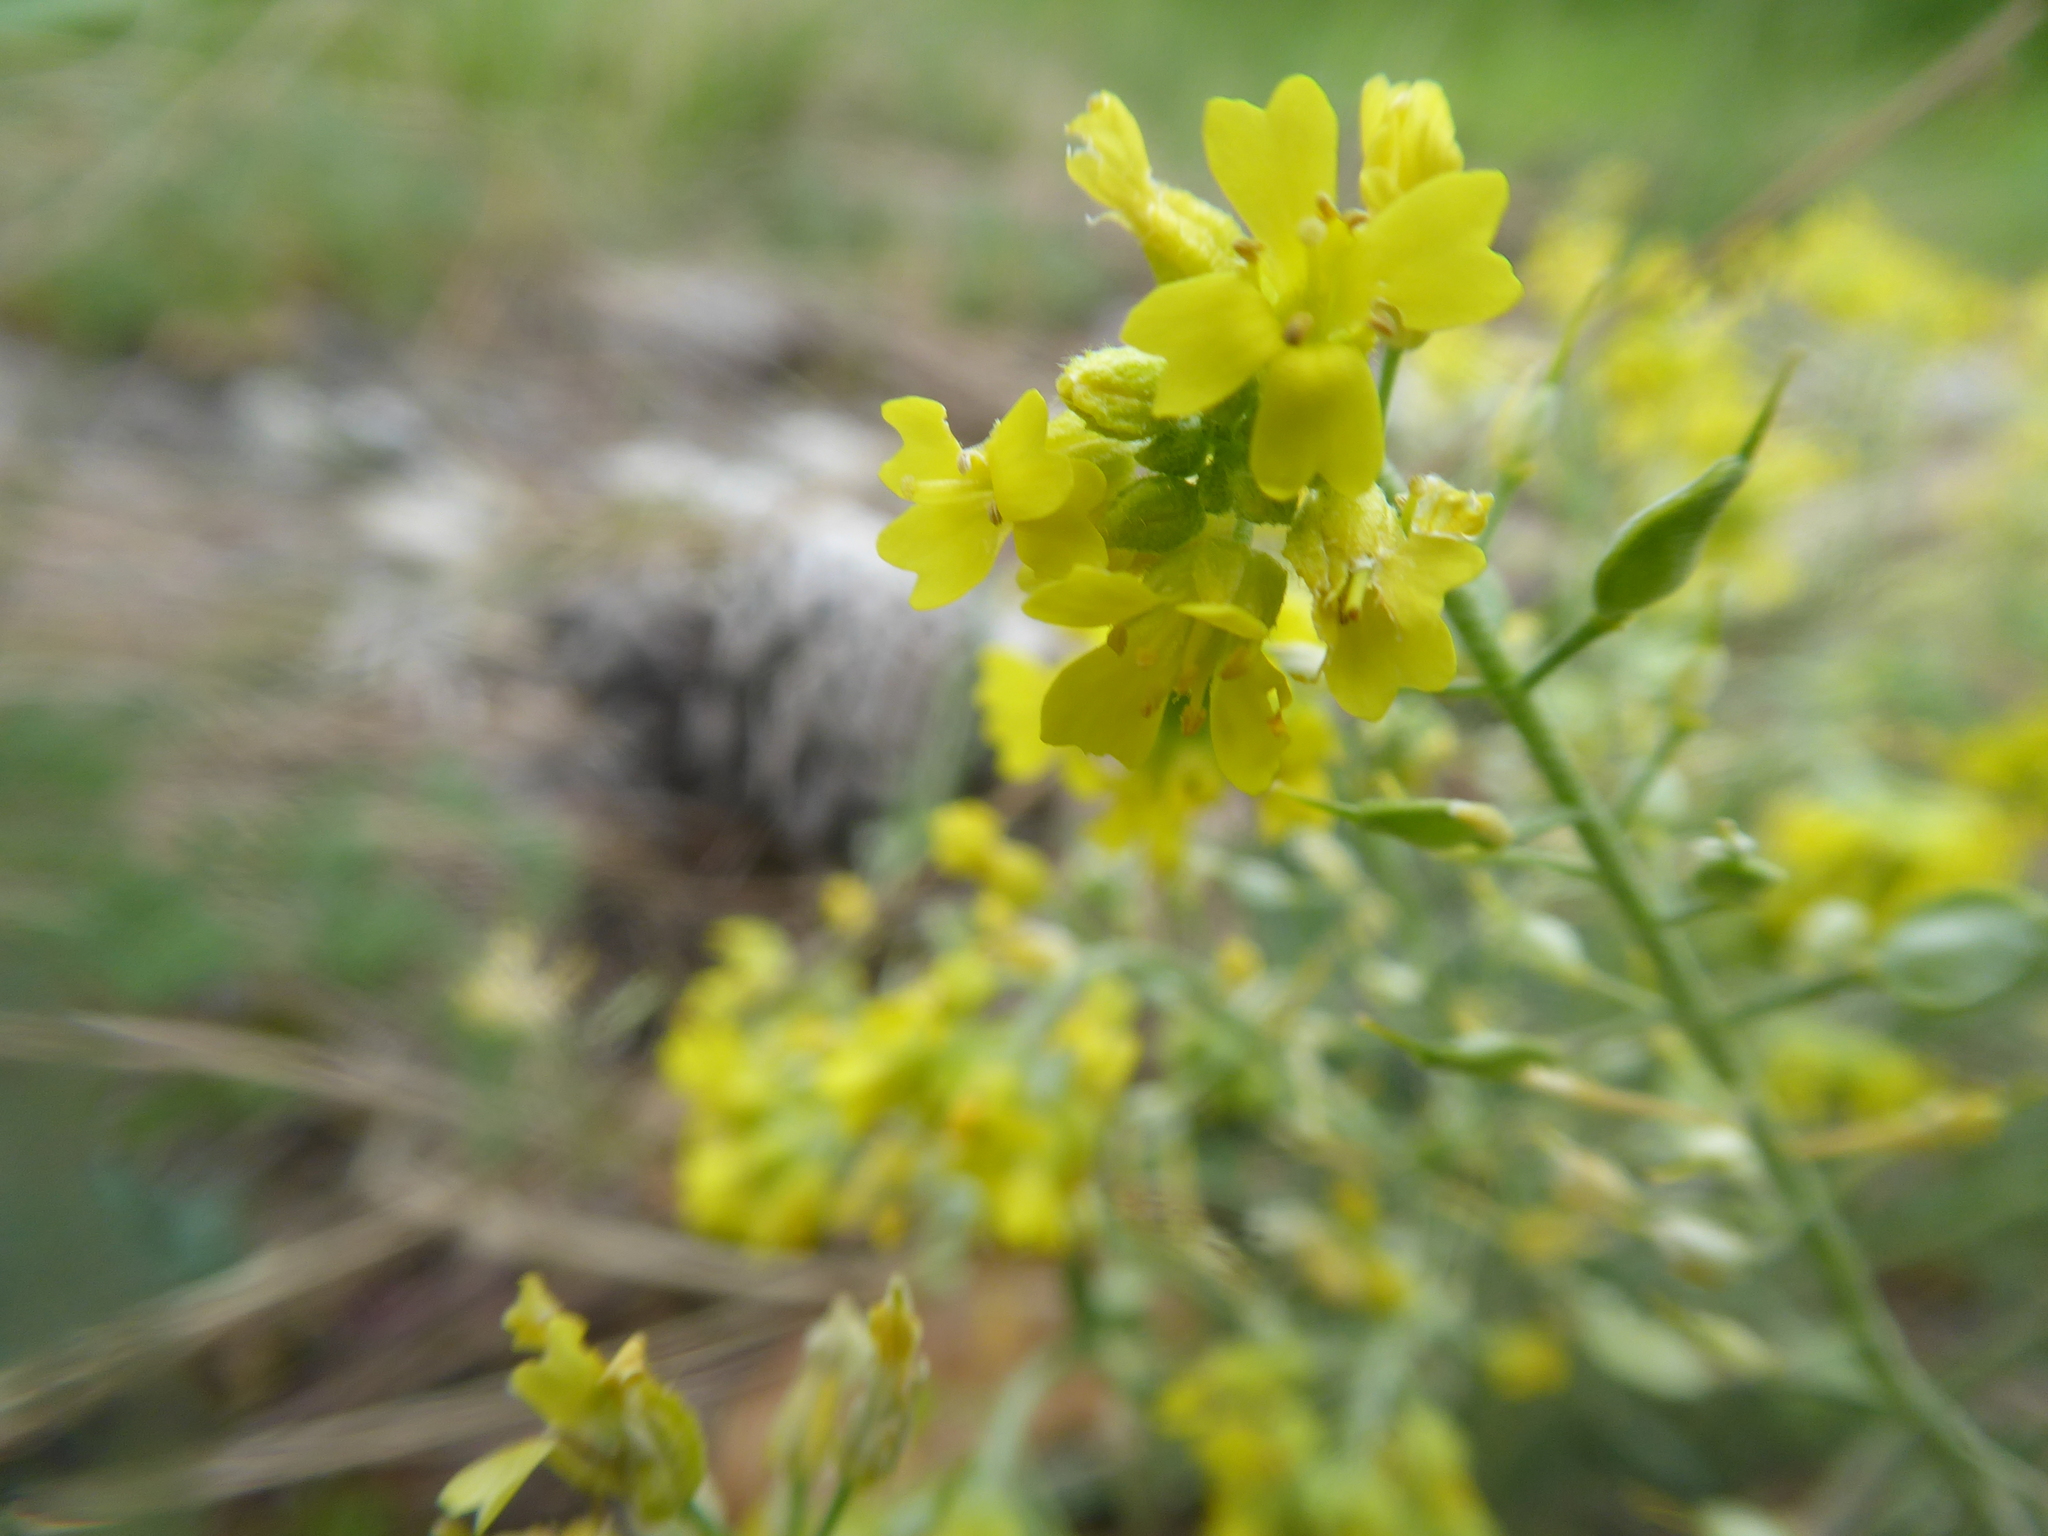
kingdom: Plantae
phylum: Tracheophyta
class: Magnoliopsida
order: Brassicales
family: Brassicaceae
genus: Alyssum
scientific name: Alyssum gmelinii
